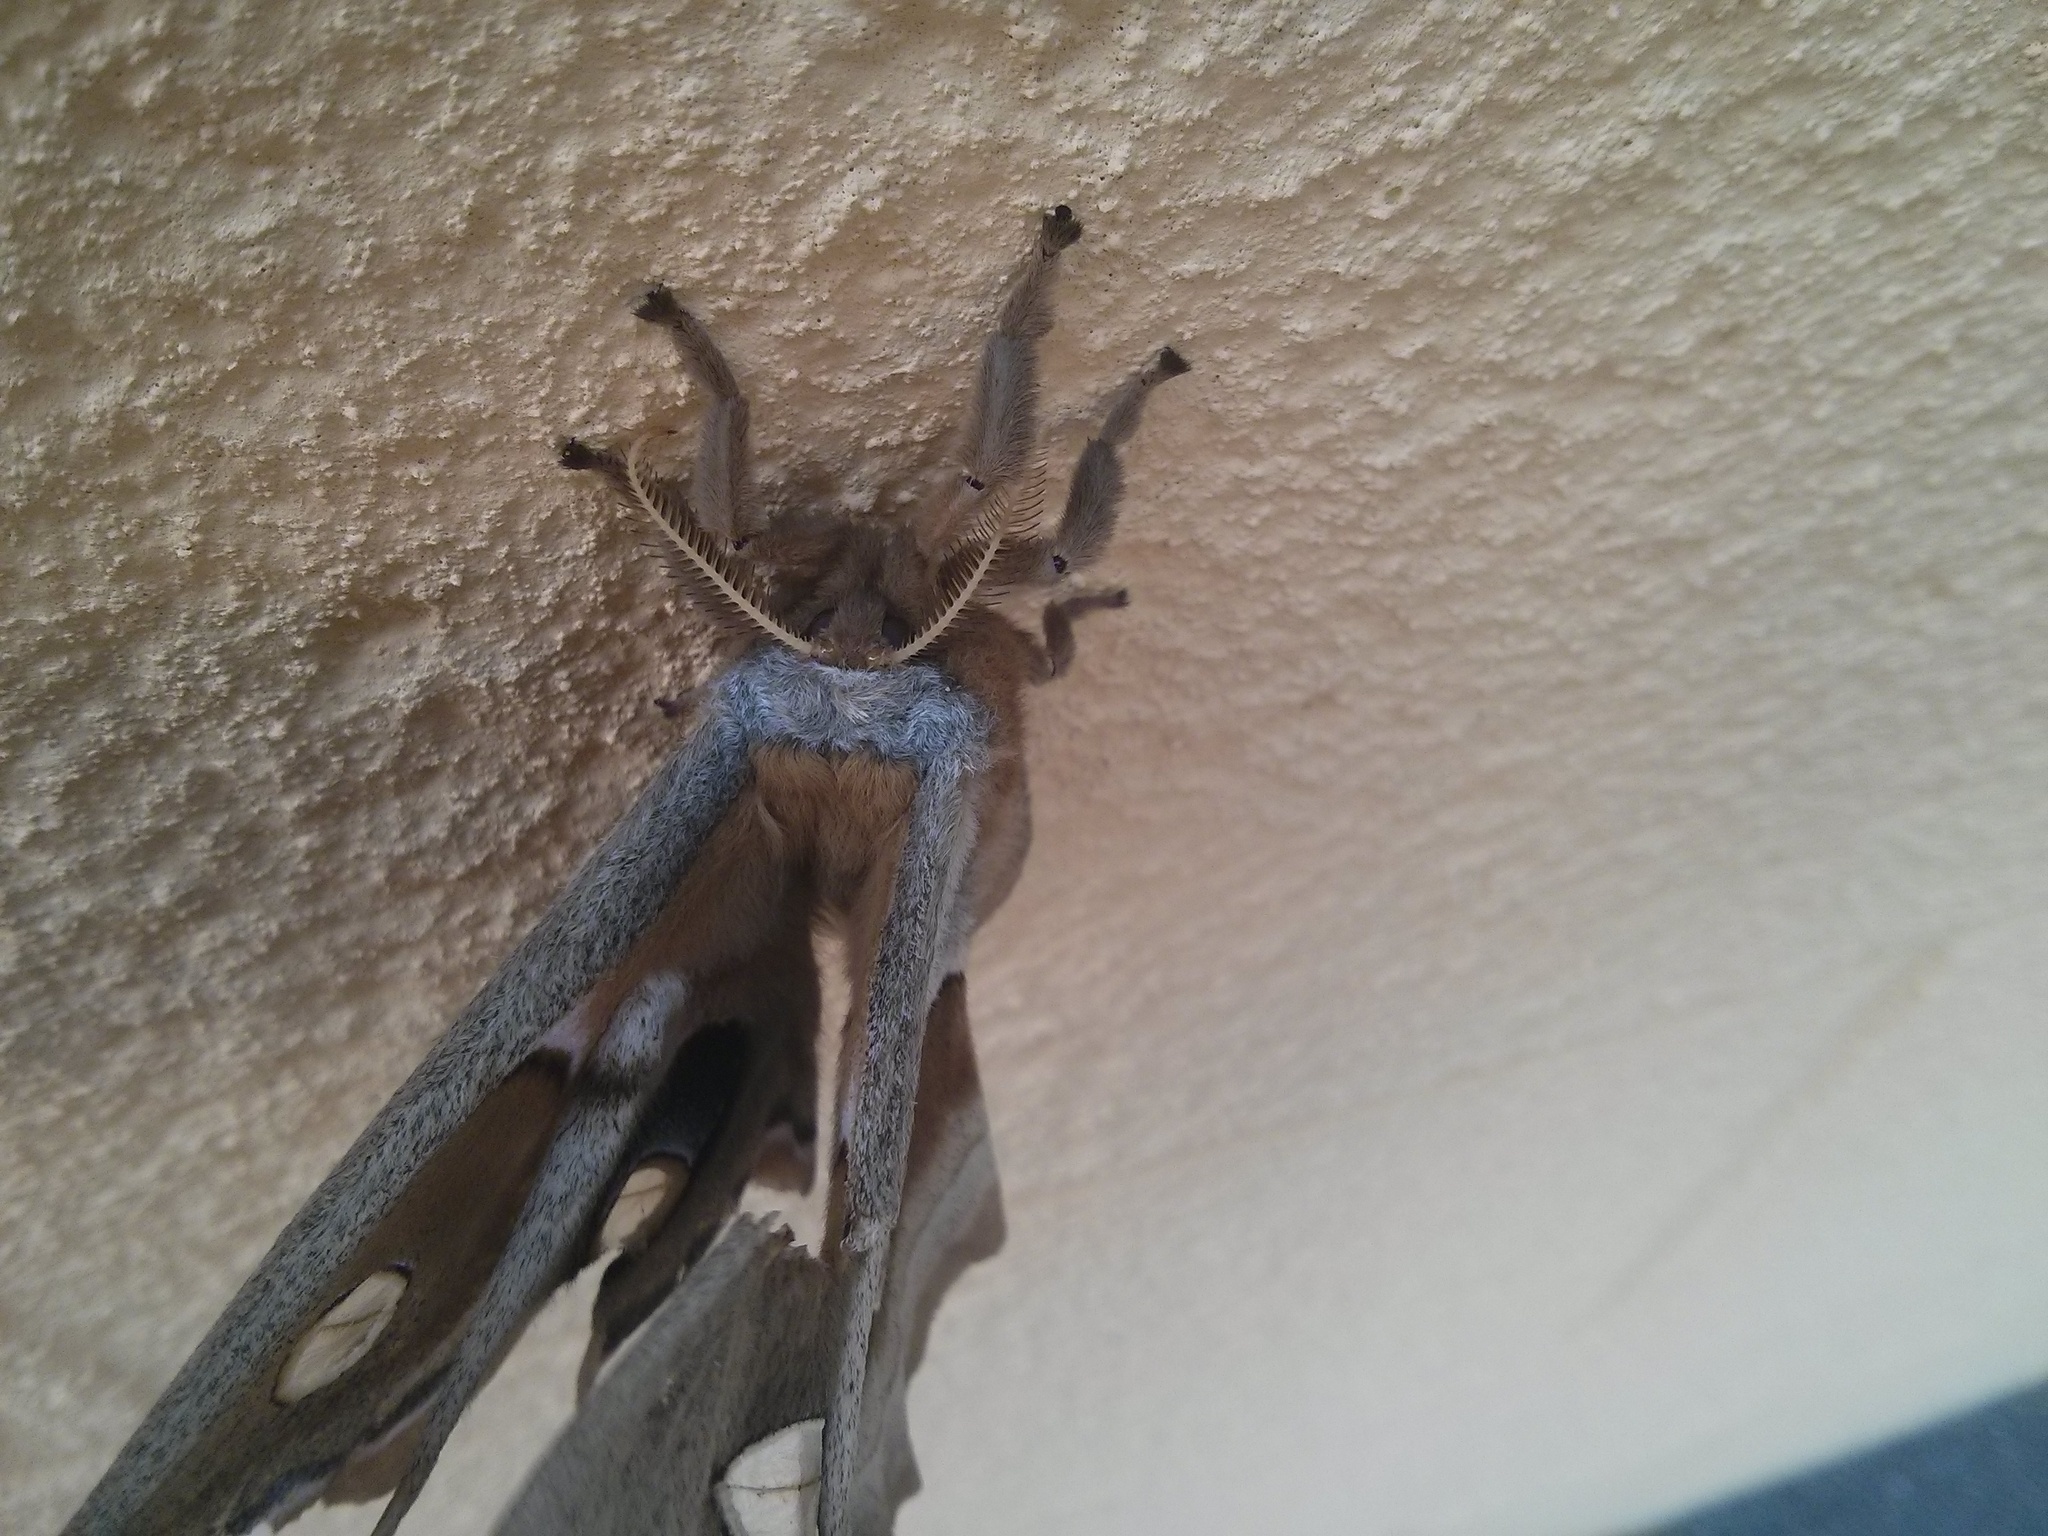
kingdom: Animalia
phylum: Arthropoda
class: Insecta
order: Lepidoptera
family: Saturniidae
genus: Antheraea
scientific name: Antheraea polyphemus
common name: Polyphemus moth
